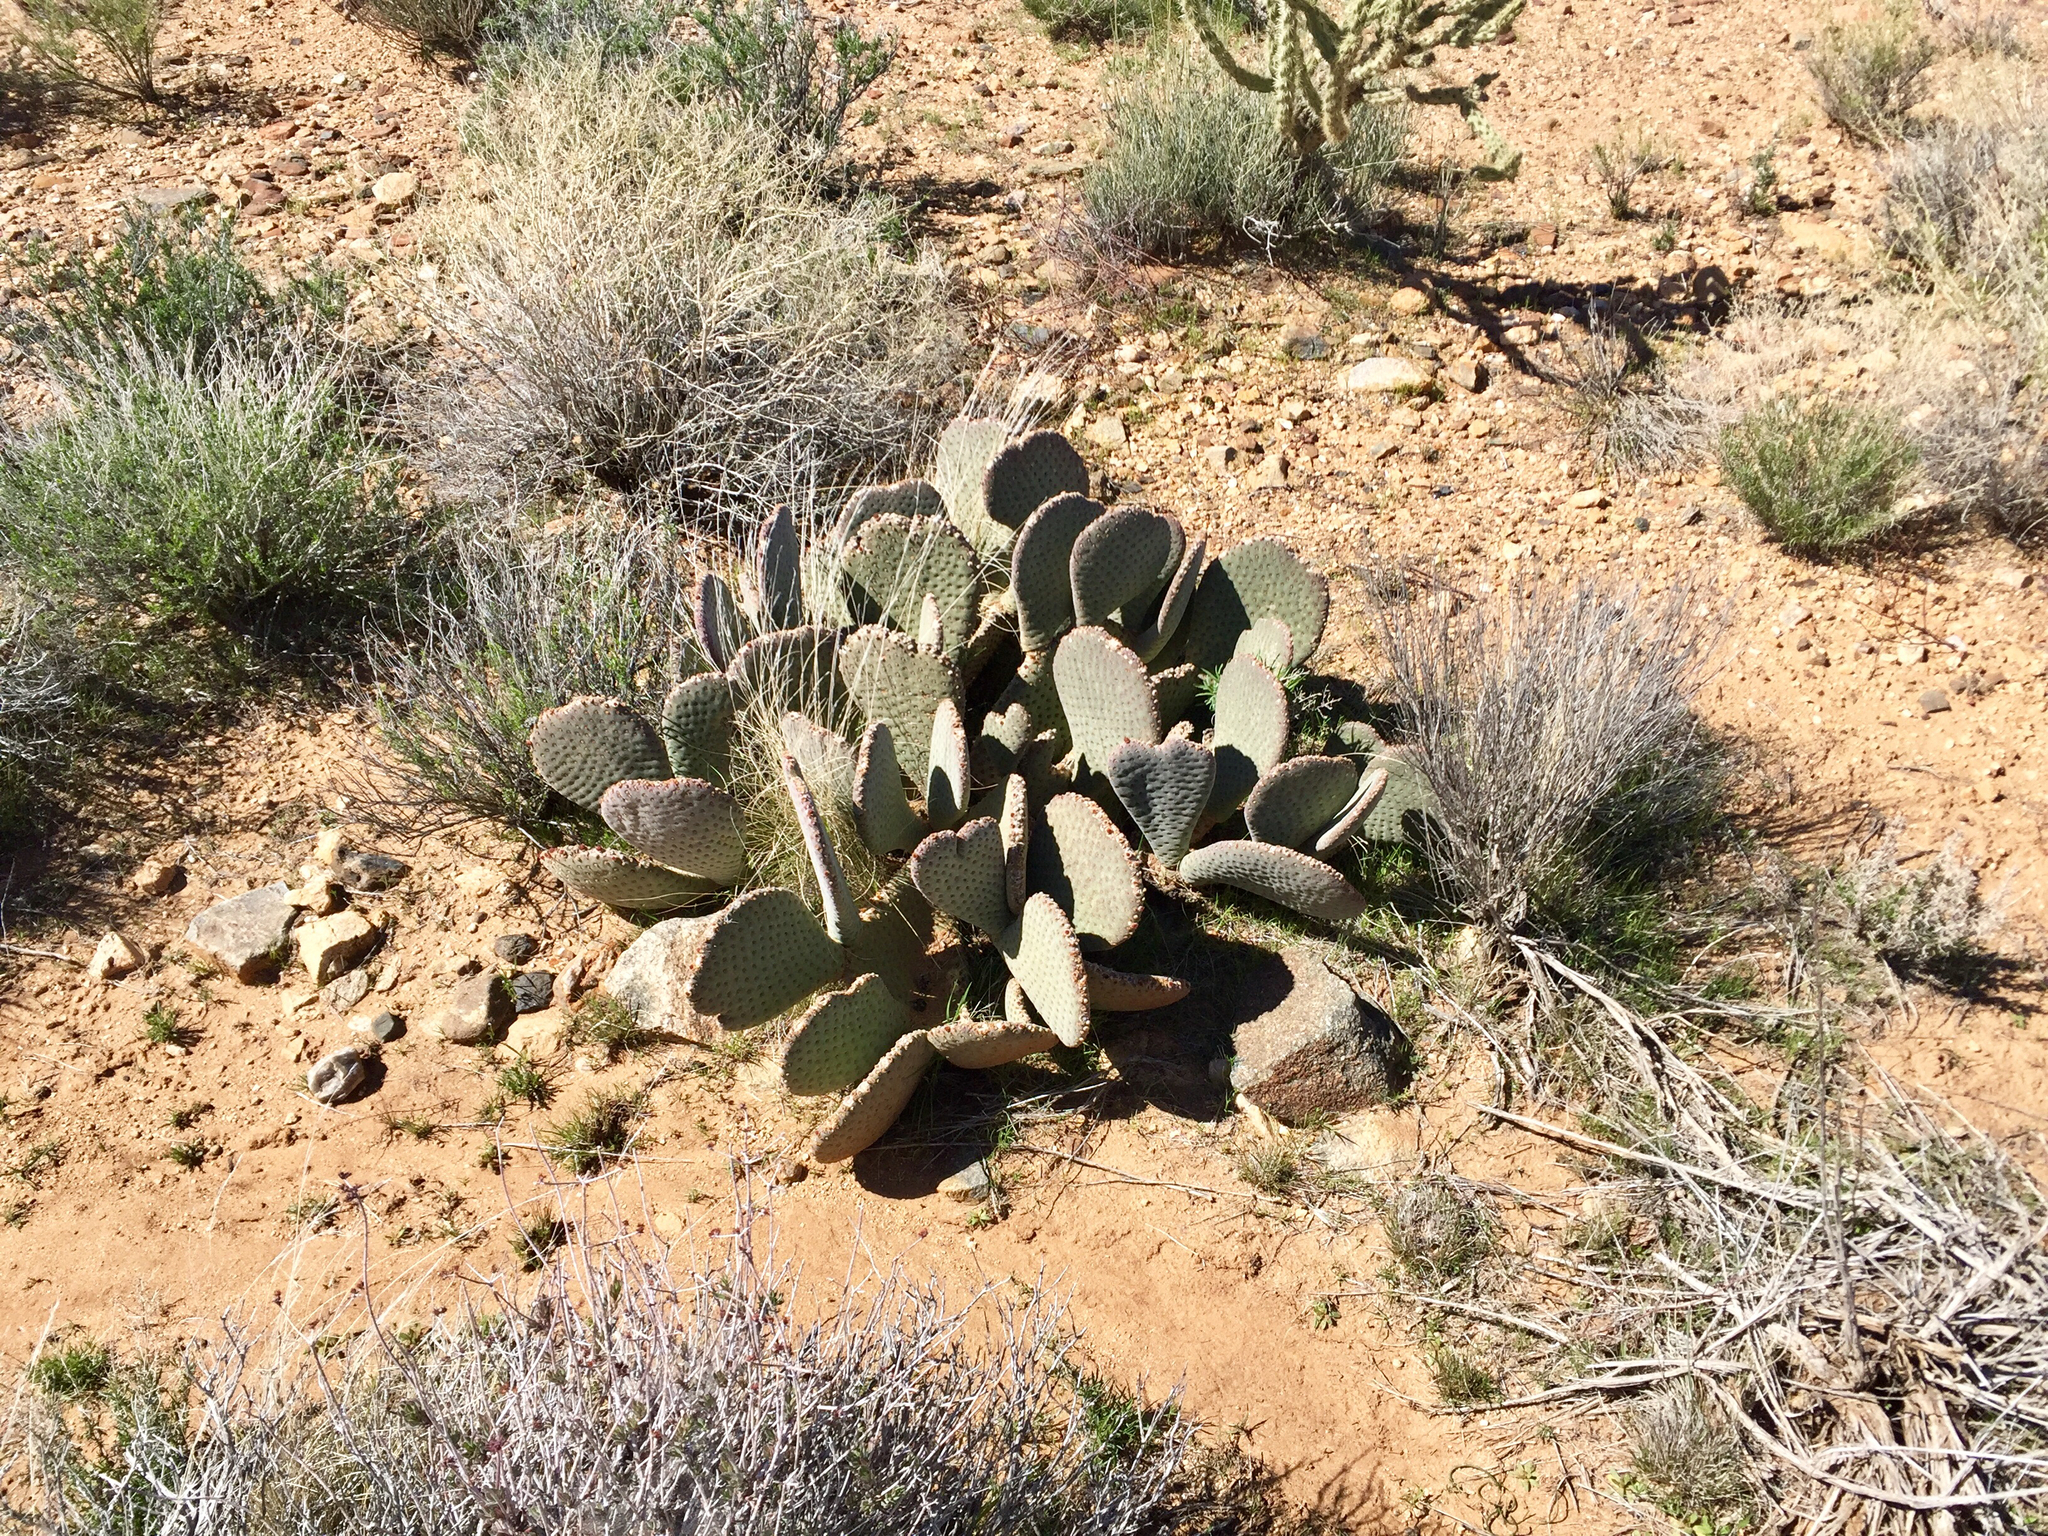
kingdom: Plantae
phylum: Tracheophyta
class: Magnoliopsida
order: Caryophyllales
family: Cactaceae
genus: Opuntia
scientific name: Opuntia basilaris
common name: Beavertail prickly-pear
